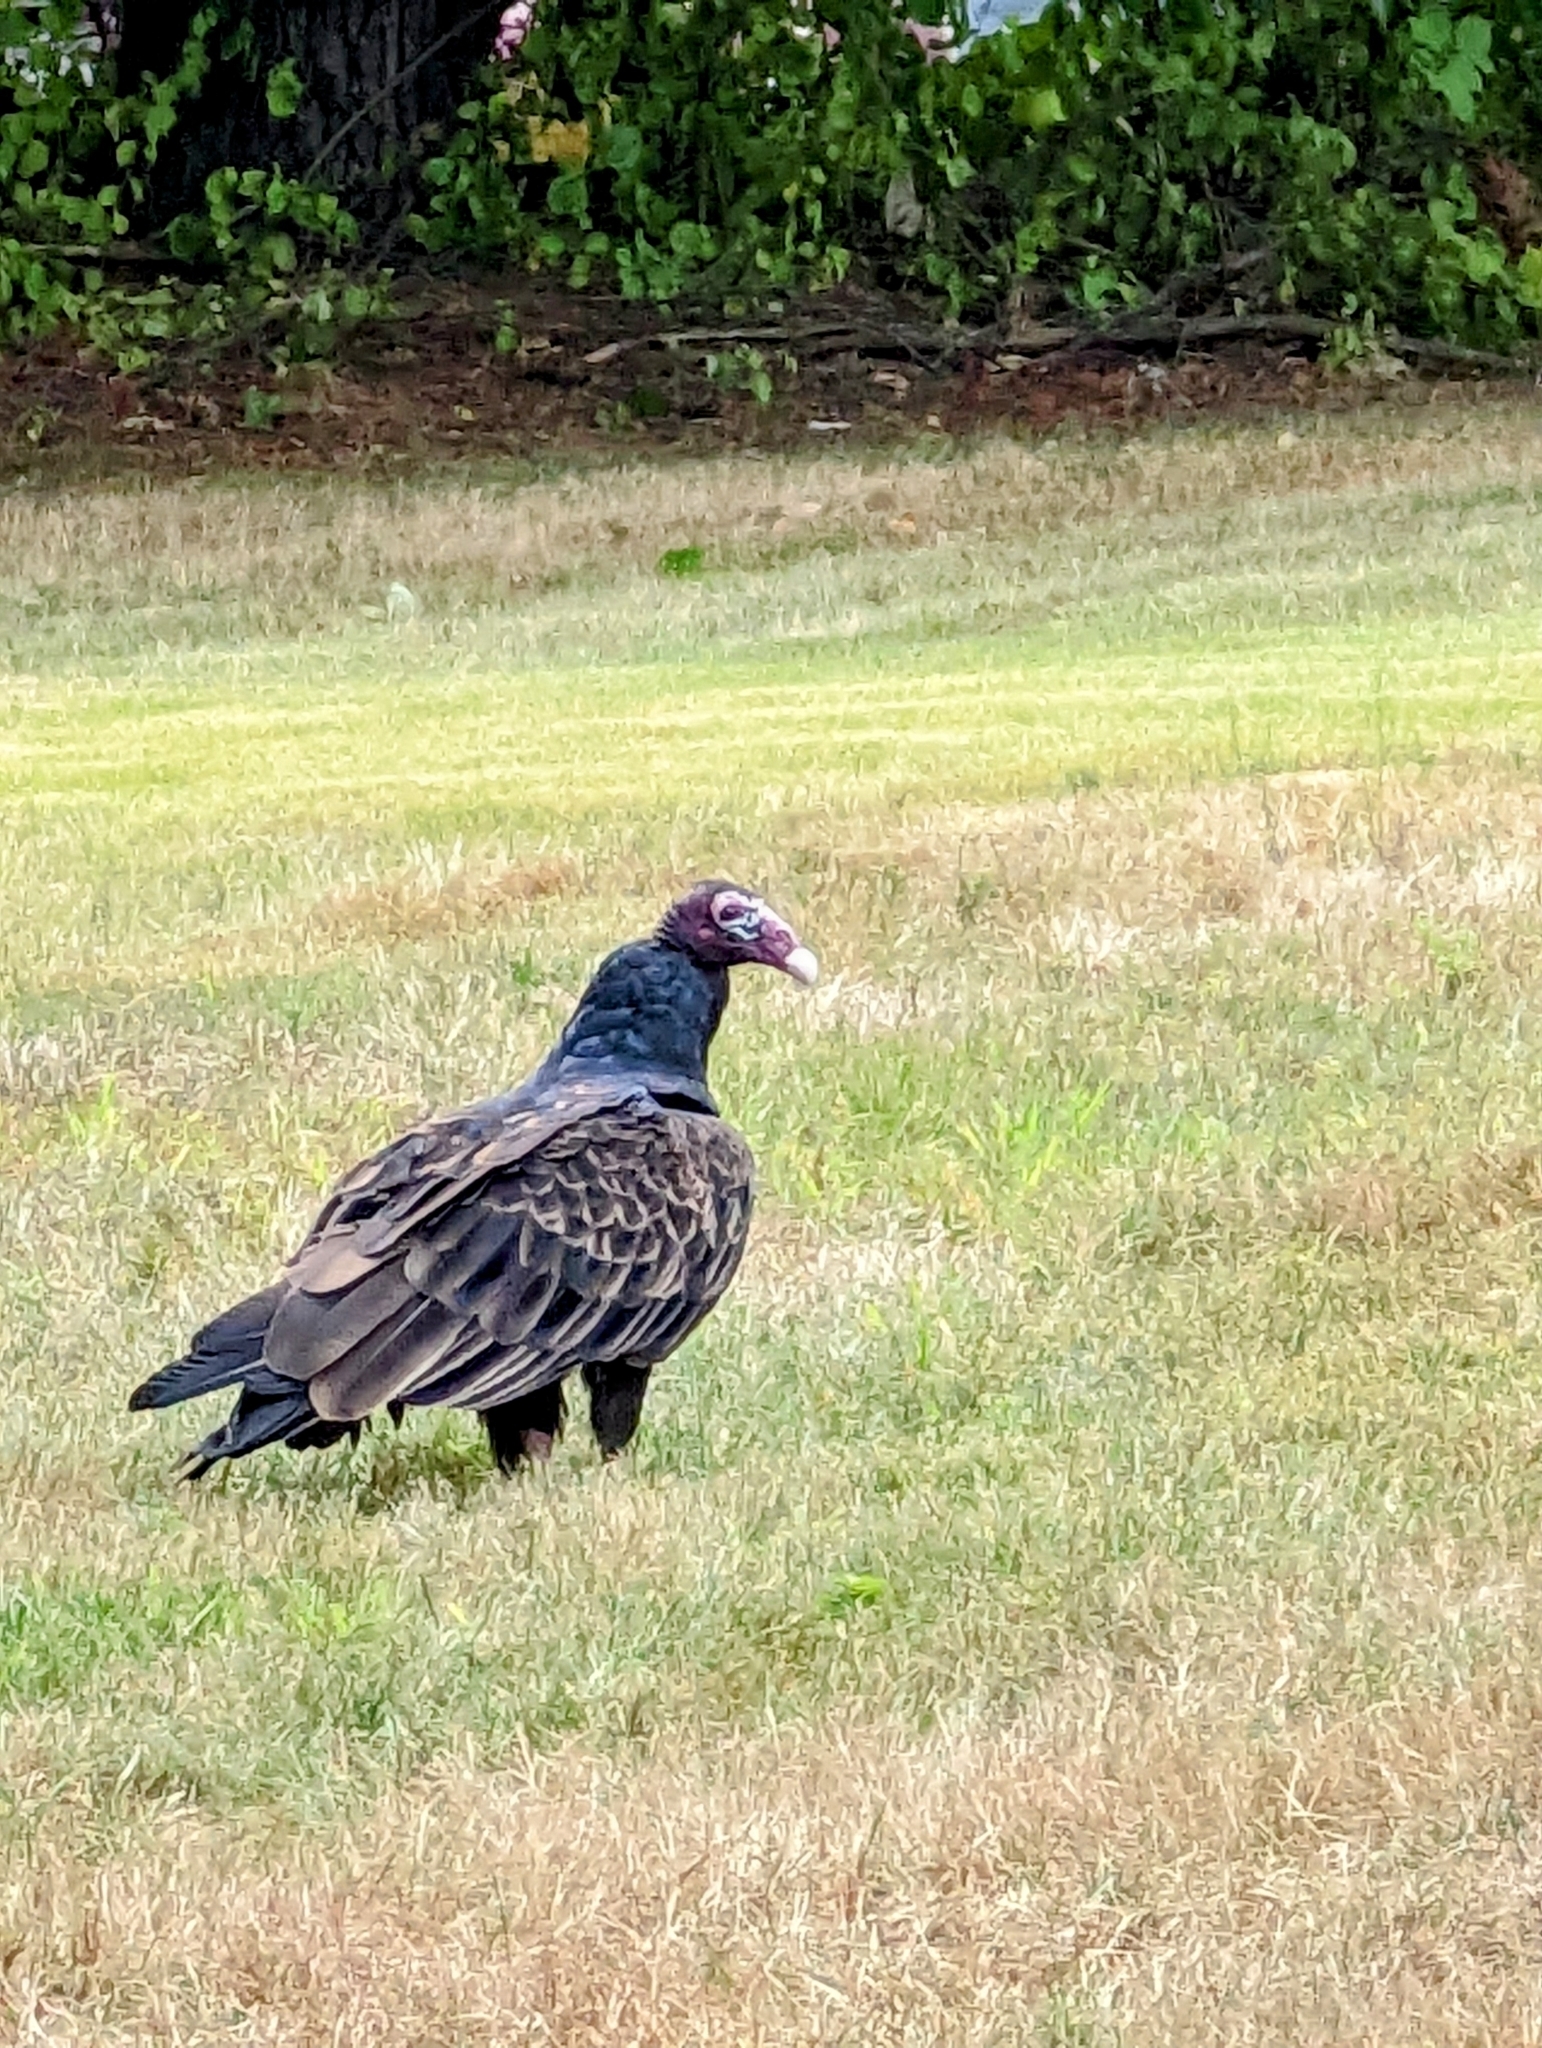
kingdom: Animalia
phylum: Chordata
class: Aves
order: Accipitriformes
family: Cathartidae
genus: Cathartes
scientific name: Cathartes aura
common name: Turkey vulture
